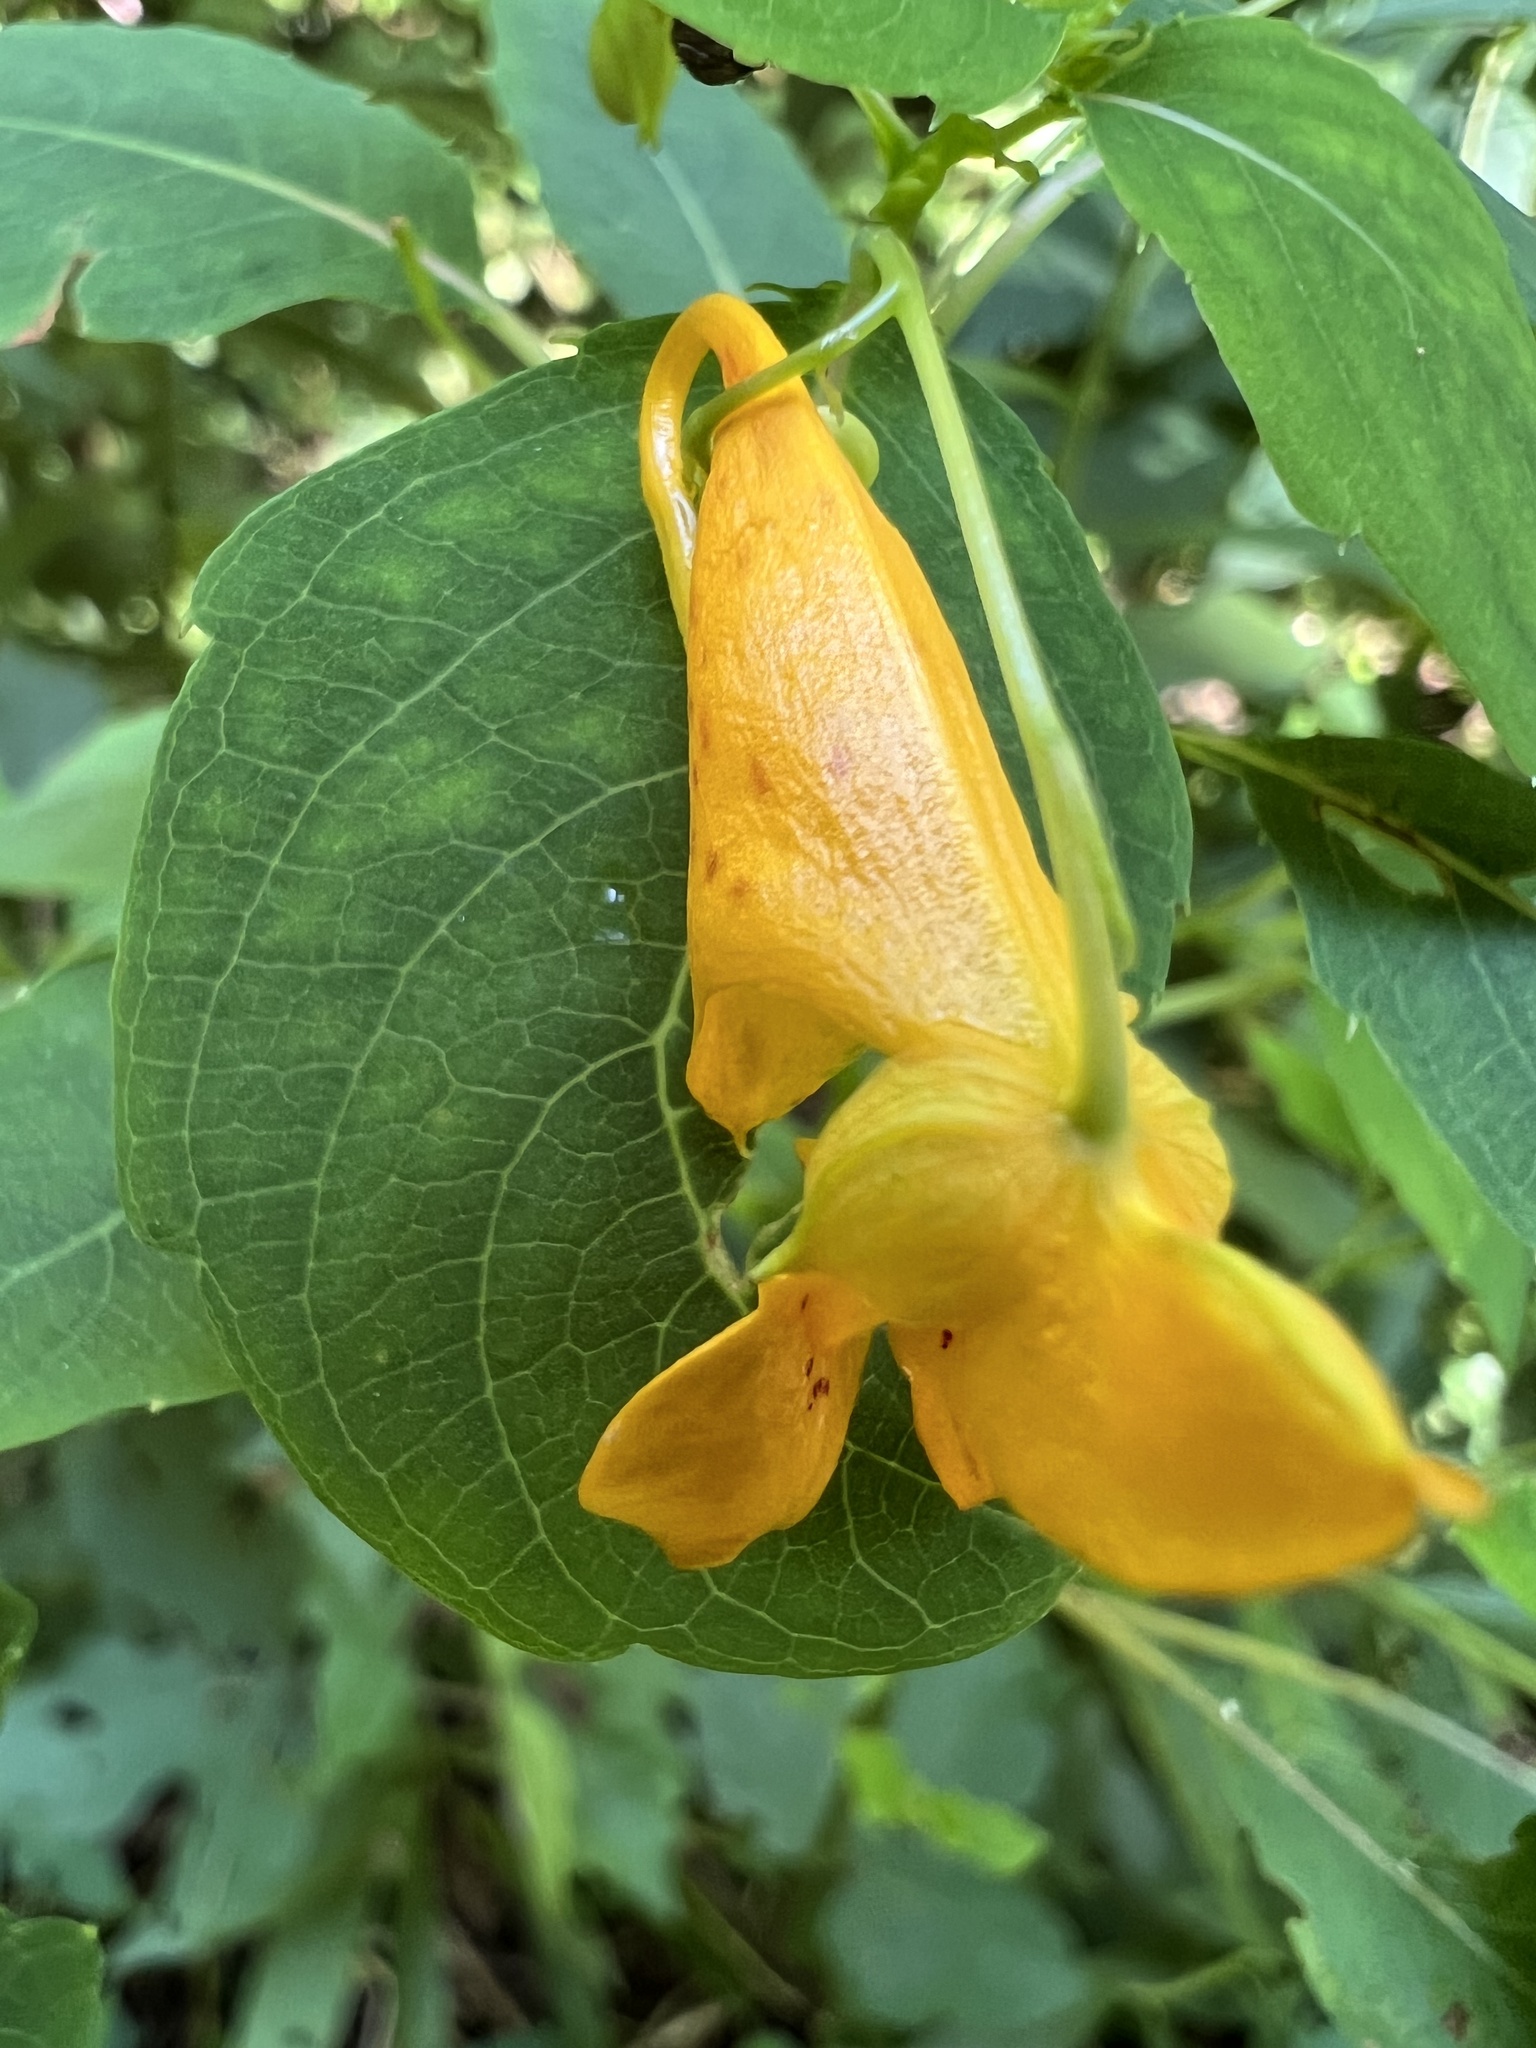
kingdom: Plantae
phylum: Tracheophyta
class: Magnoliopsida
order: Ericales
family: Balsaminaceae
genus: Impatiens
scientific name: Impatiens capensis
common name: Orange balsam
